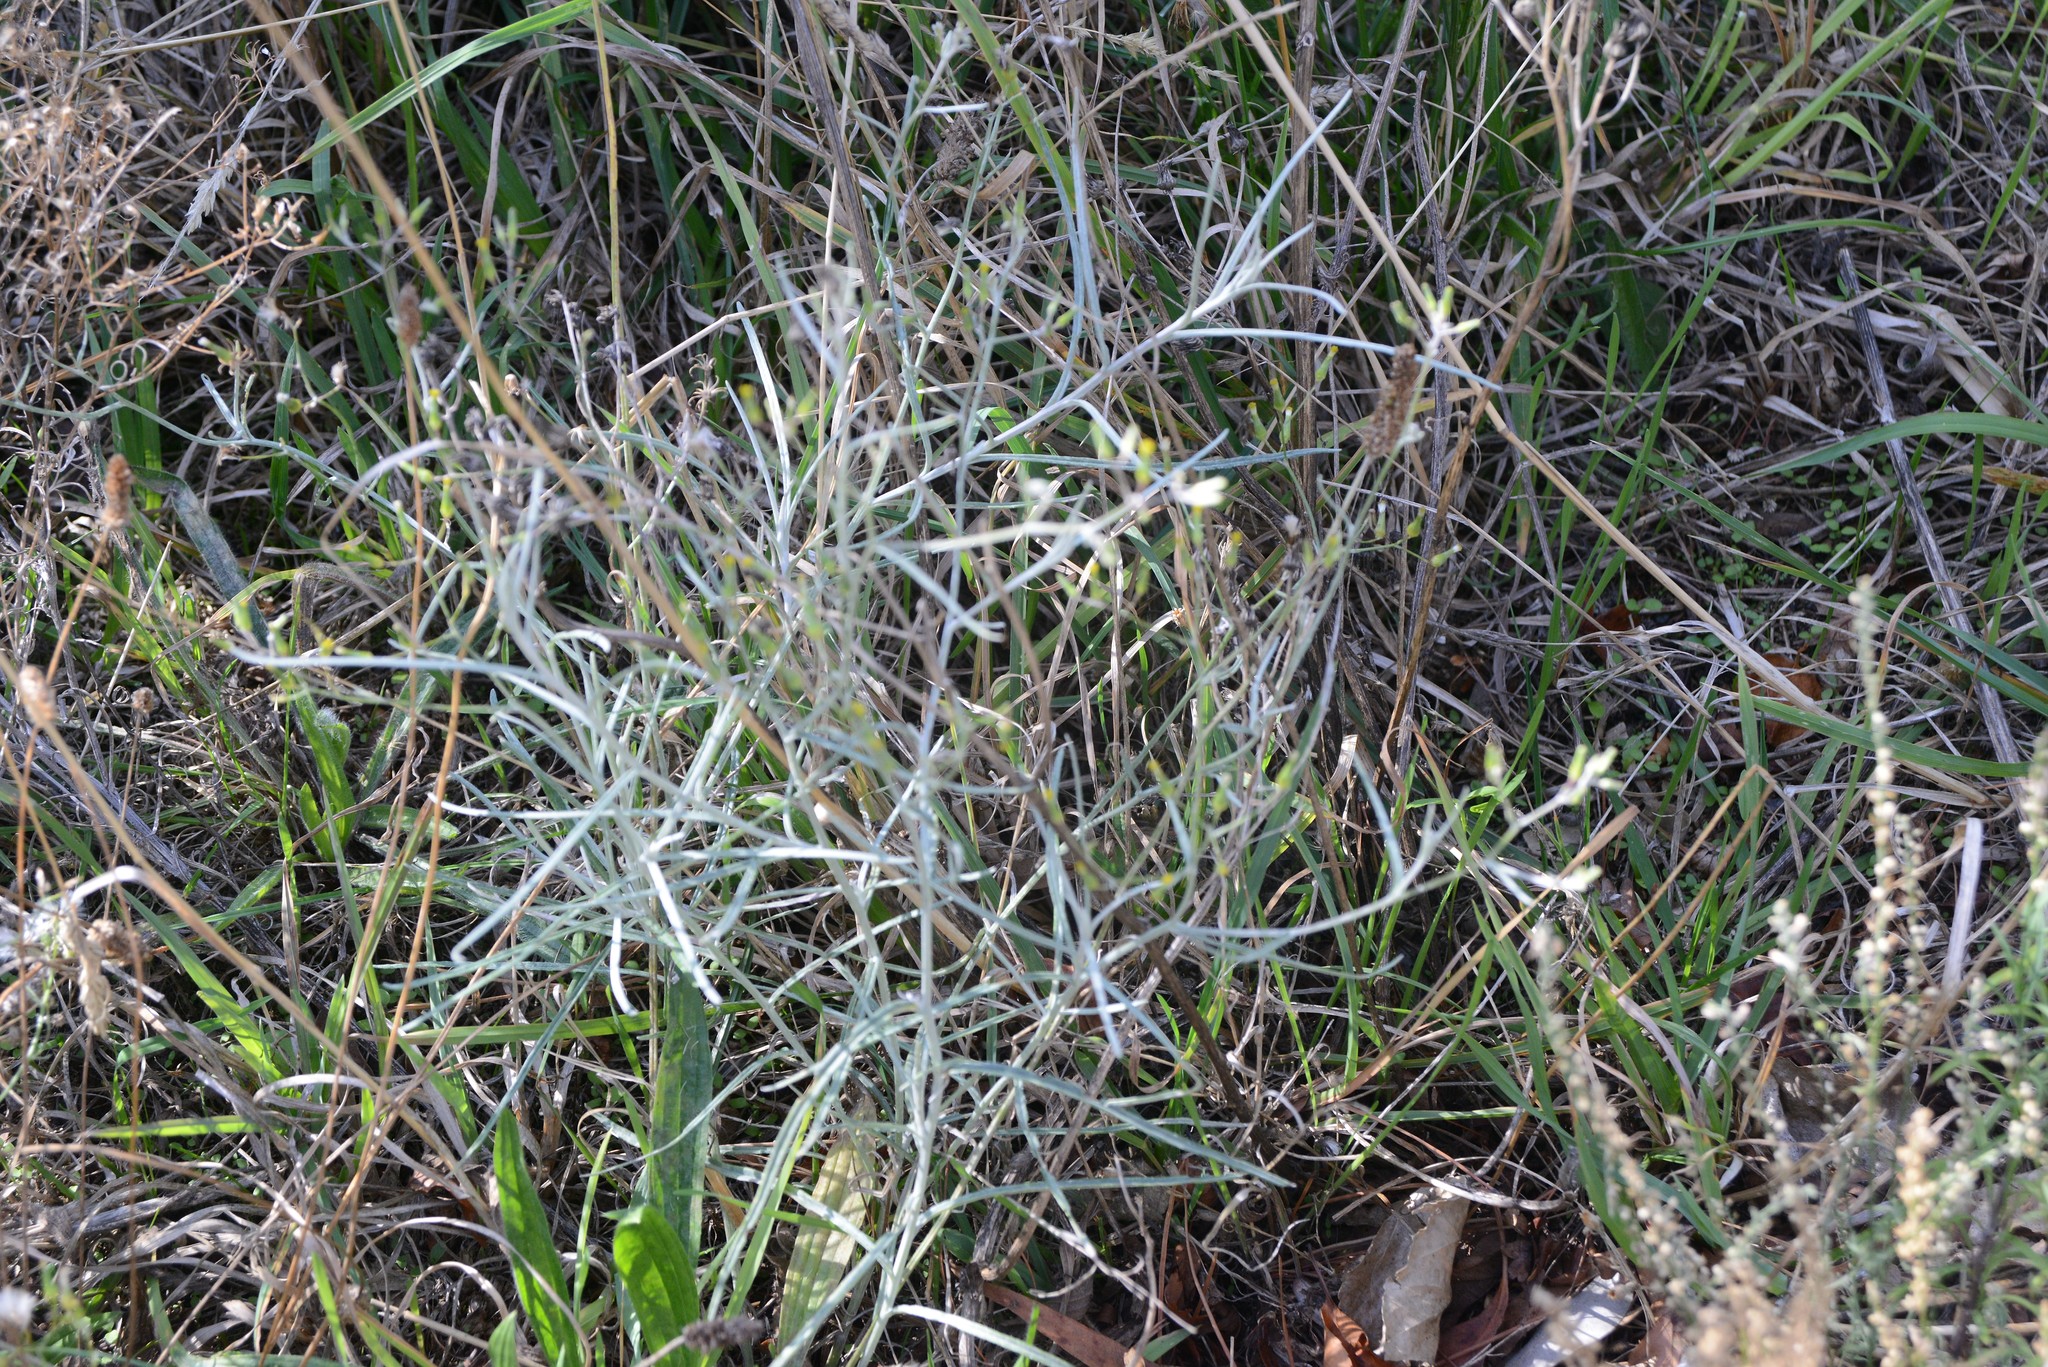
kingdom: Plantae
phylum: Tracheophyta
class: Magnoliopsida
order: Asterales
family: Asteraceae
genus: Senecio
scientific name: Senecio quadridentatus
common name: Cotton fireweed
